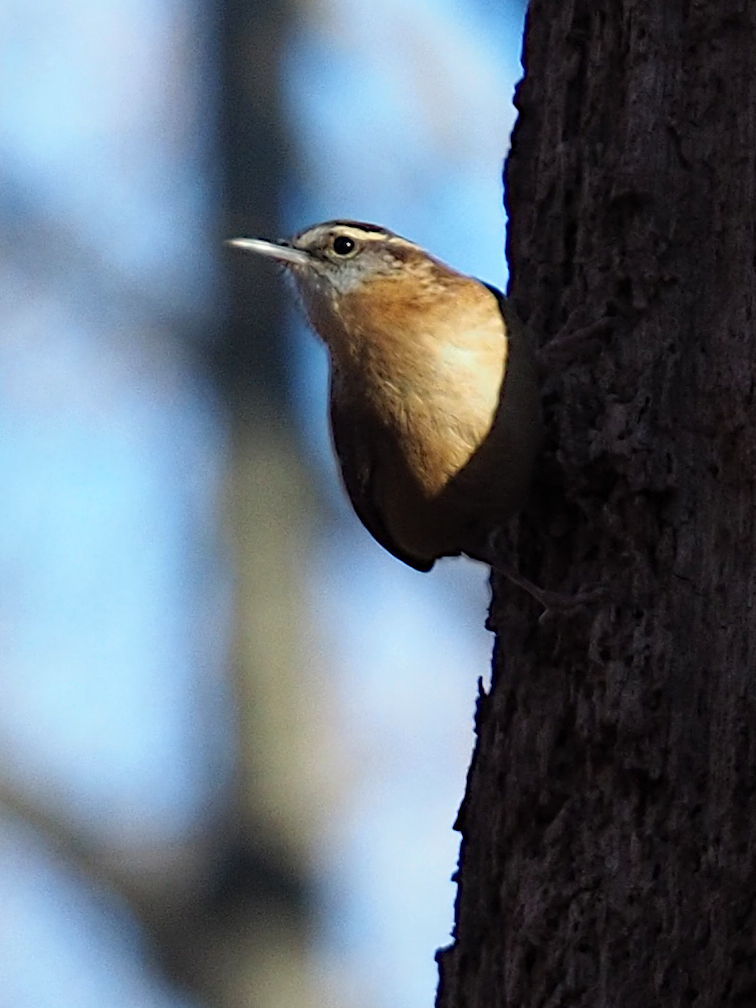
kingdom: Animalia
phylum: Chordata
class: Aves
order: Passeriformes
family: Troglodytidae
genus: Thryothorus
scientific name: Thryothorus ludovicianus
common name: Carolina wren
